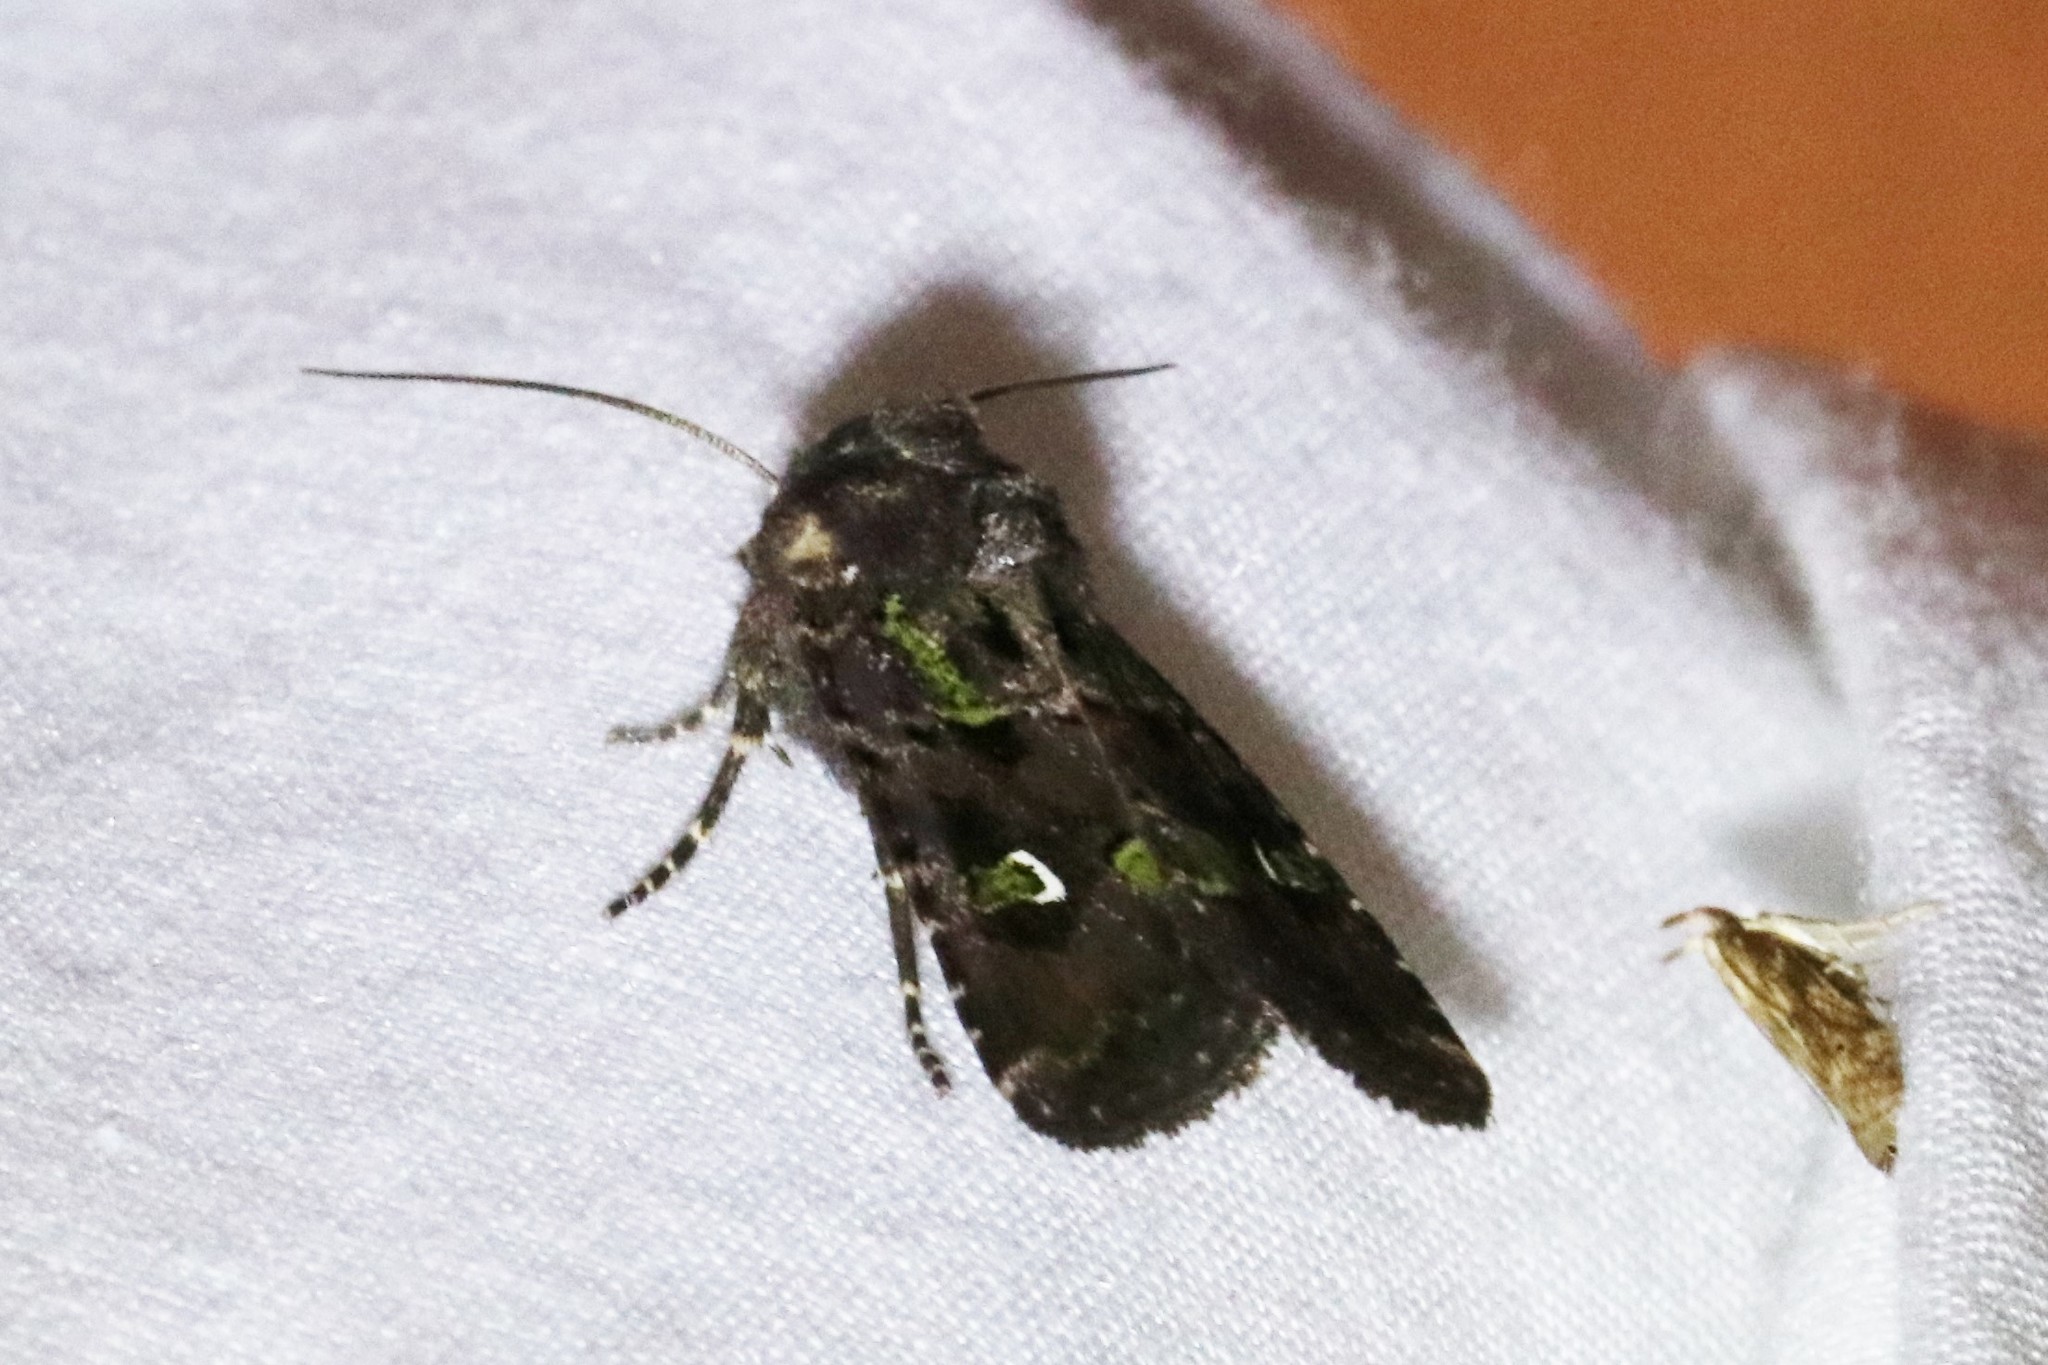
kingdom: Animalia
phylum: Arthropoda
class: Insecta
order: Lepidoptera
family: Noctuidae
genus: Lacinipolia
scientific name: Lacinipolia renigera
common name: Kidney-spotted minor
